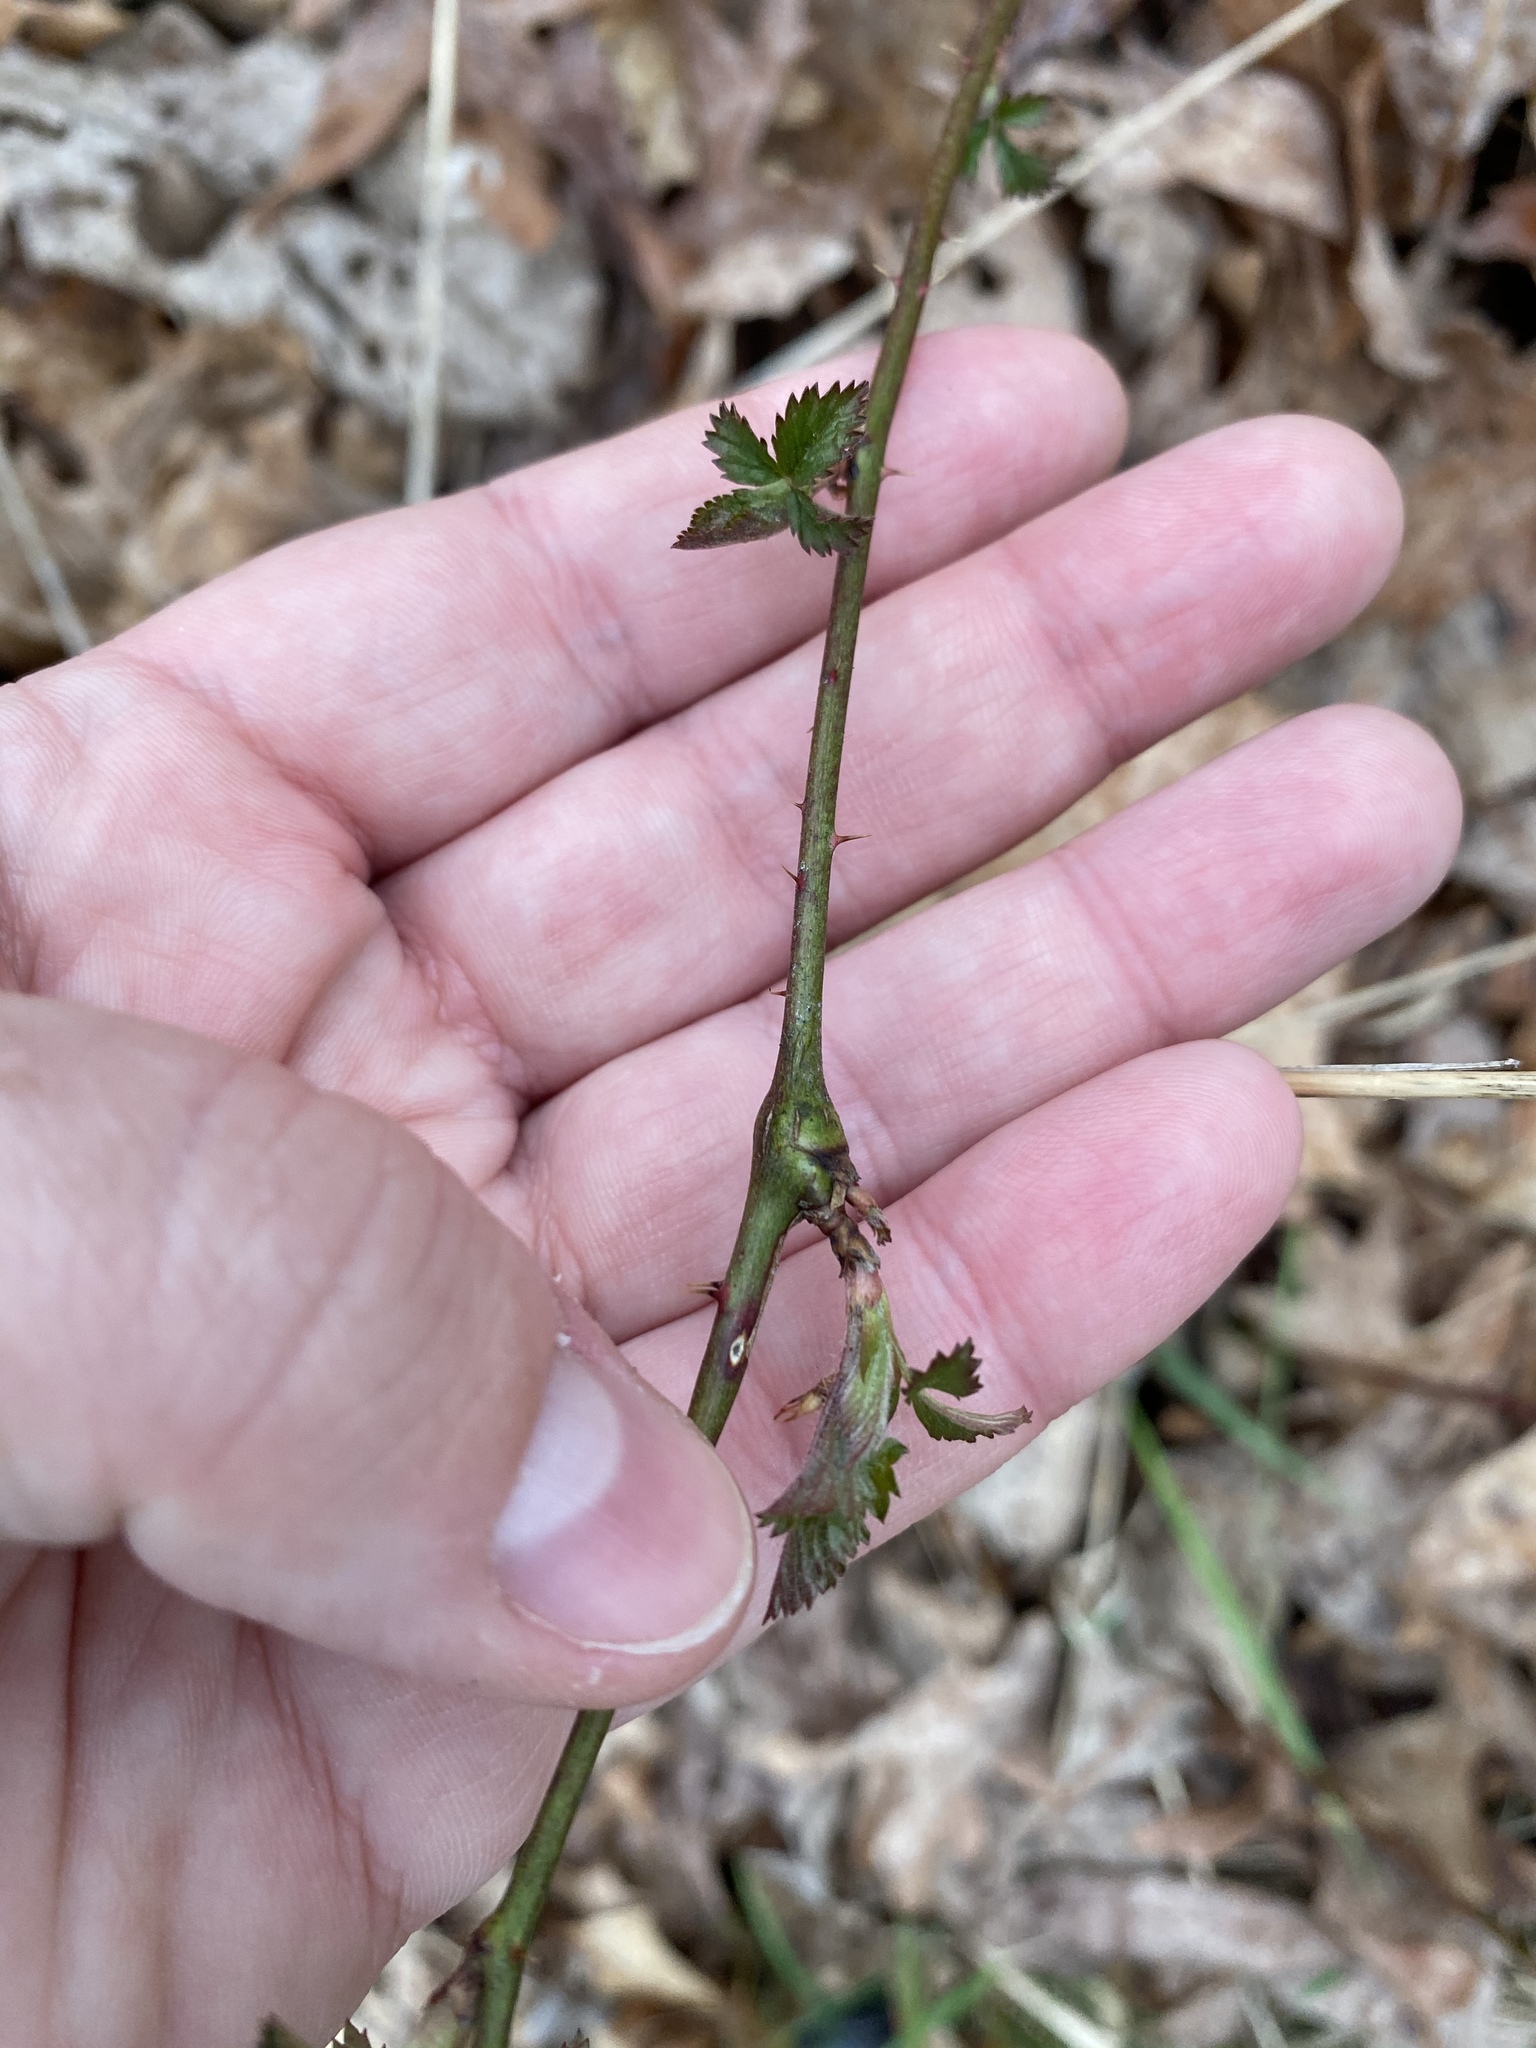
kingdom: Animalia
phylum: Arthropoda
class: Insecta
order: Hymenoptera
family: Cynipidae
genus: Diastrophus
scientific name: Diastrophus
